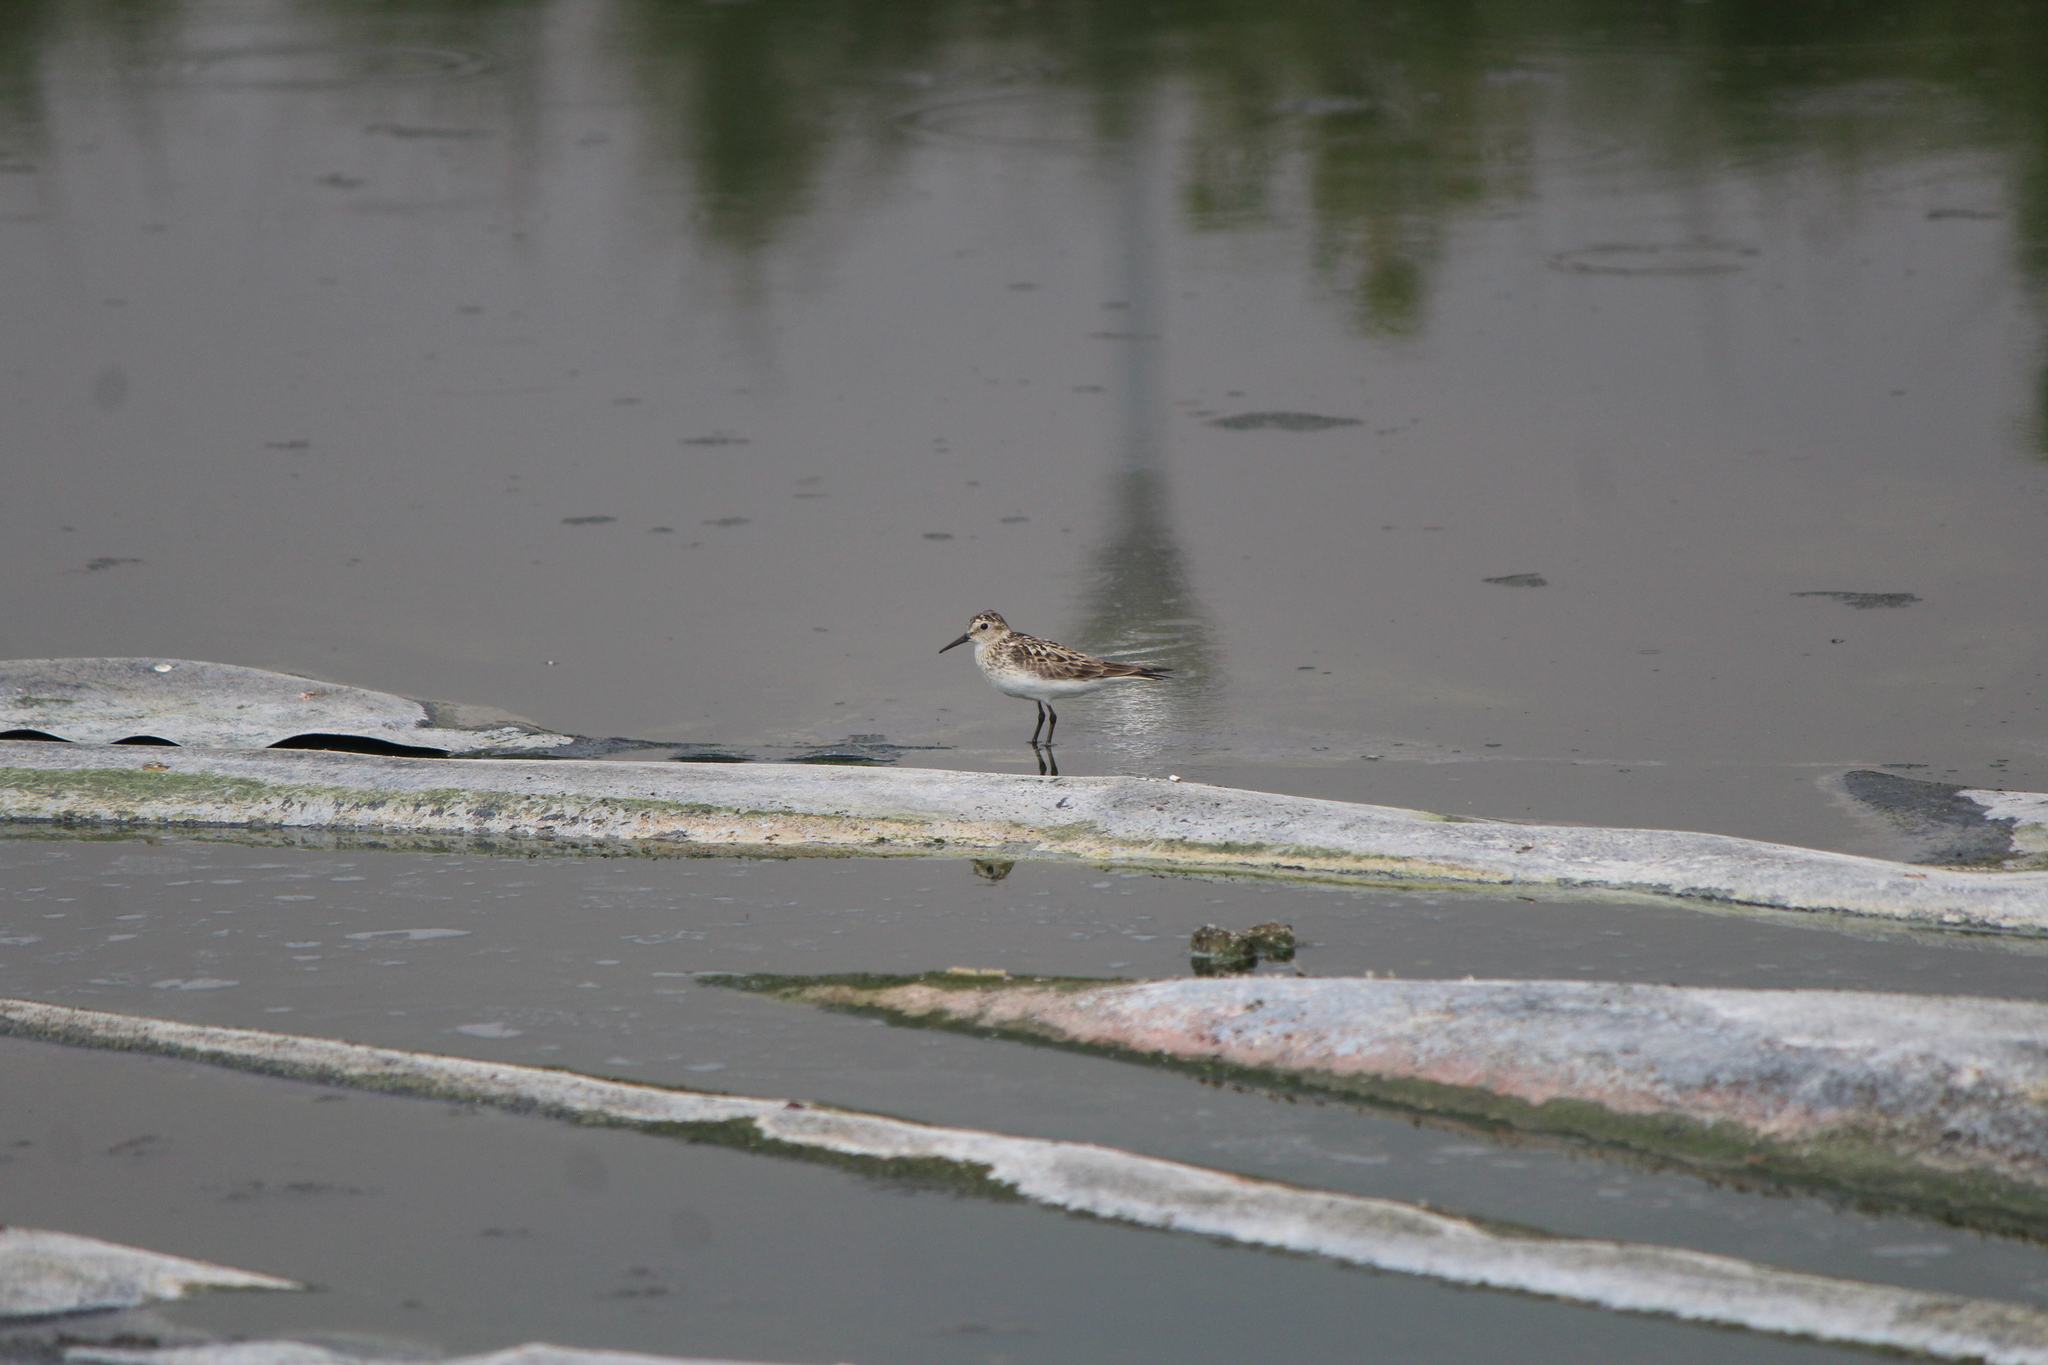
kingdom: Animalia
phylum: Chordata
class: Aves
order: Charadriiformes
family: Scolopacidae
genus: Calidris
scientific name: Calidris bairdii
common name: Baird's sandpiper
